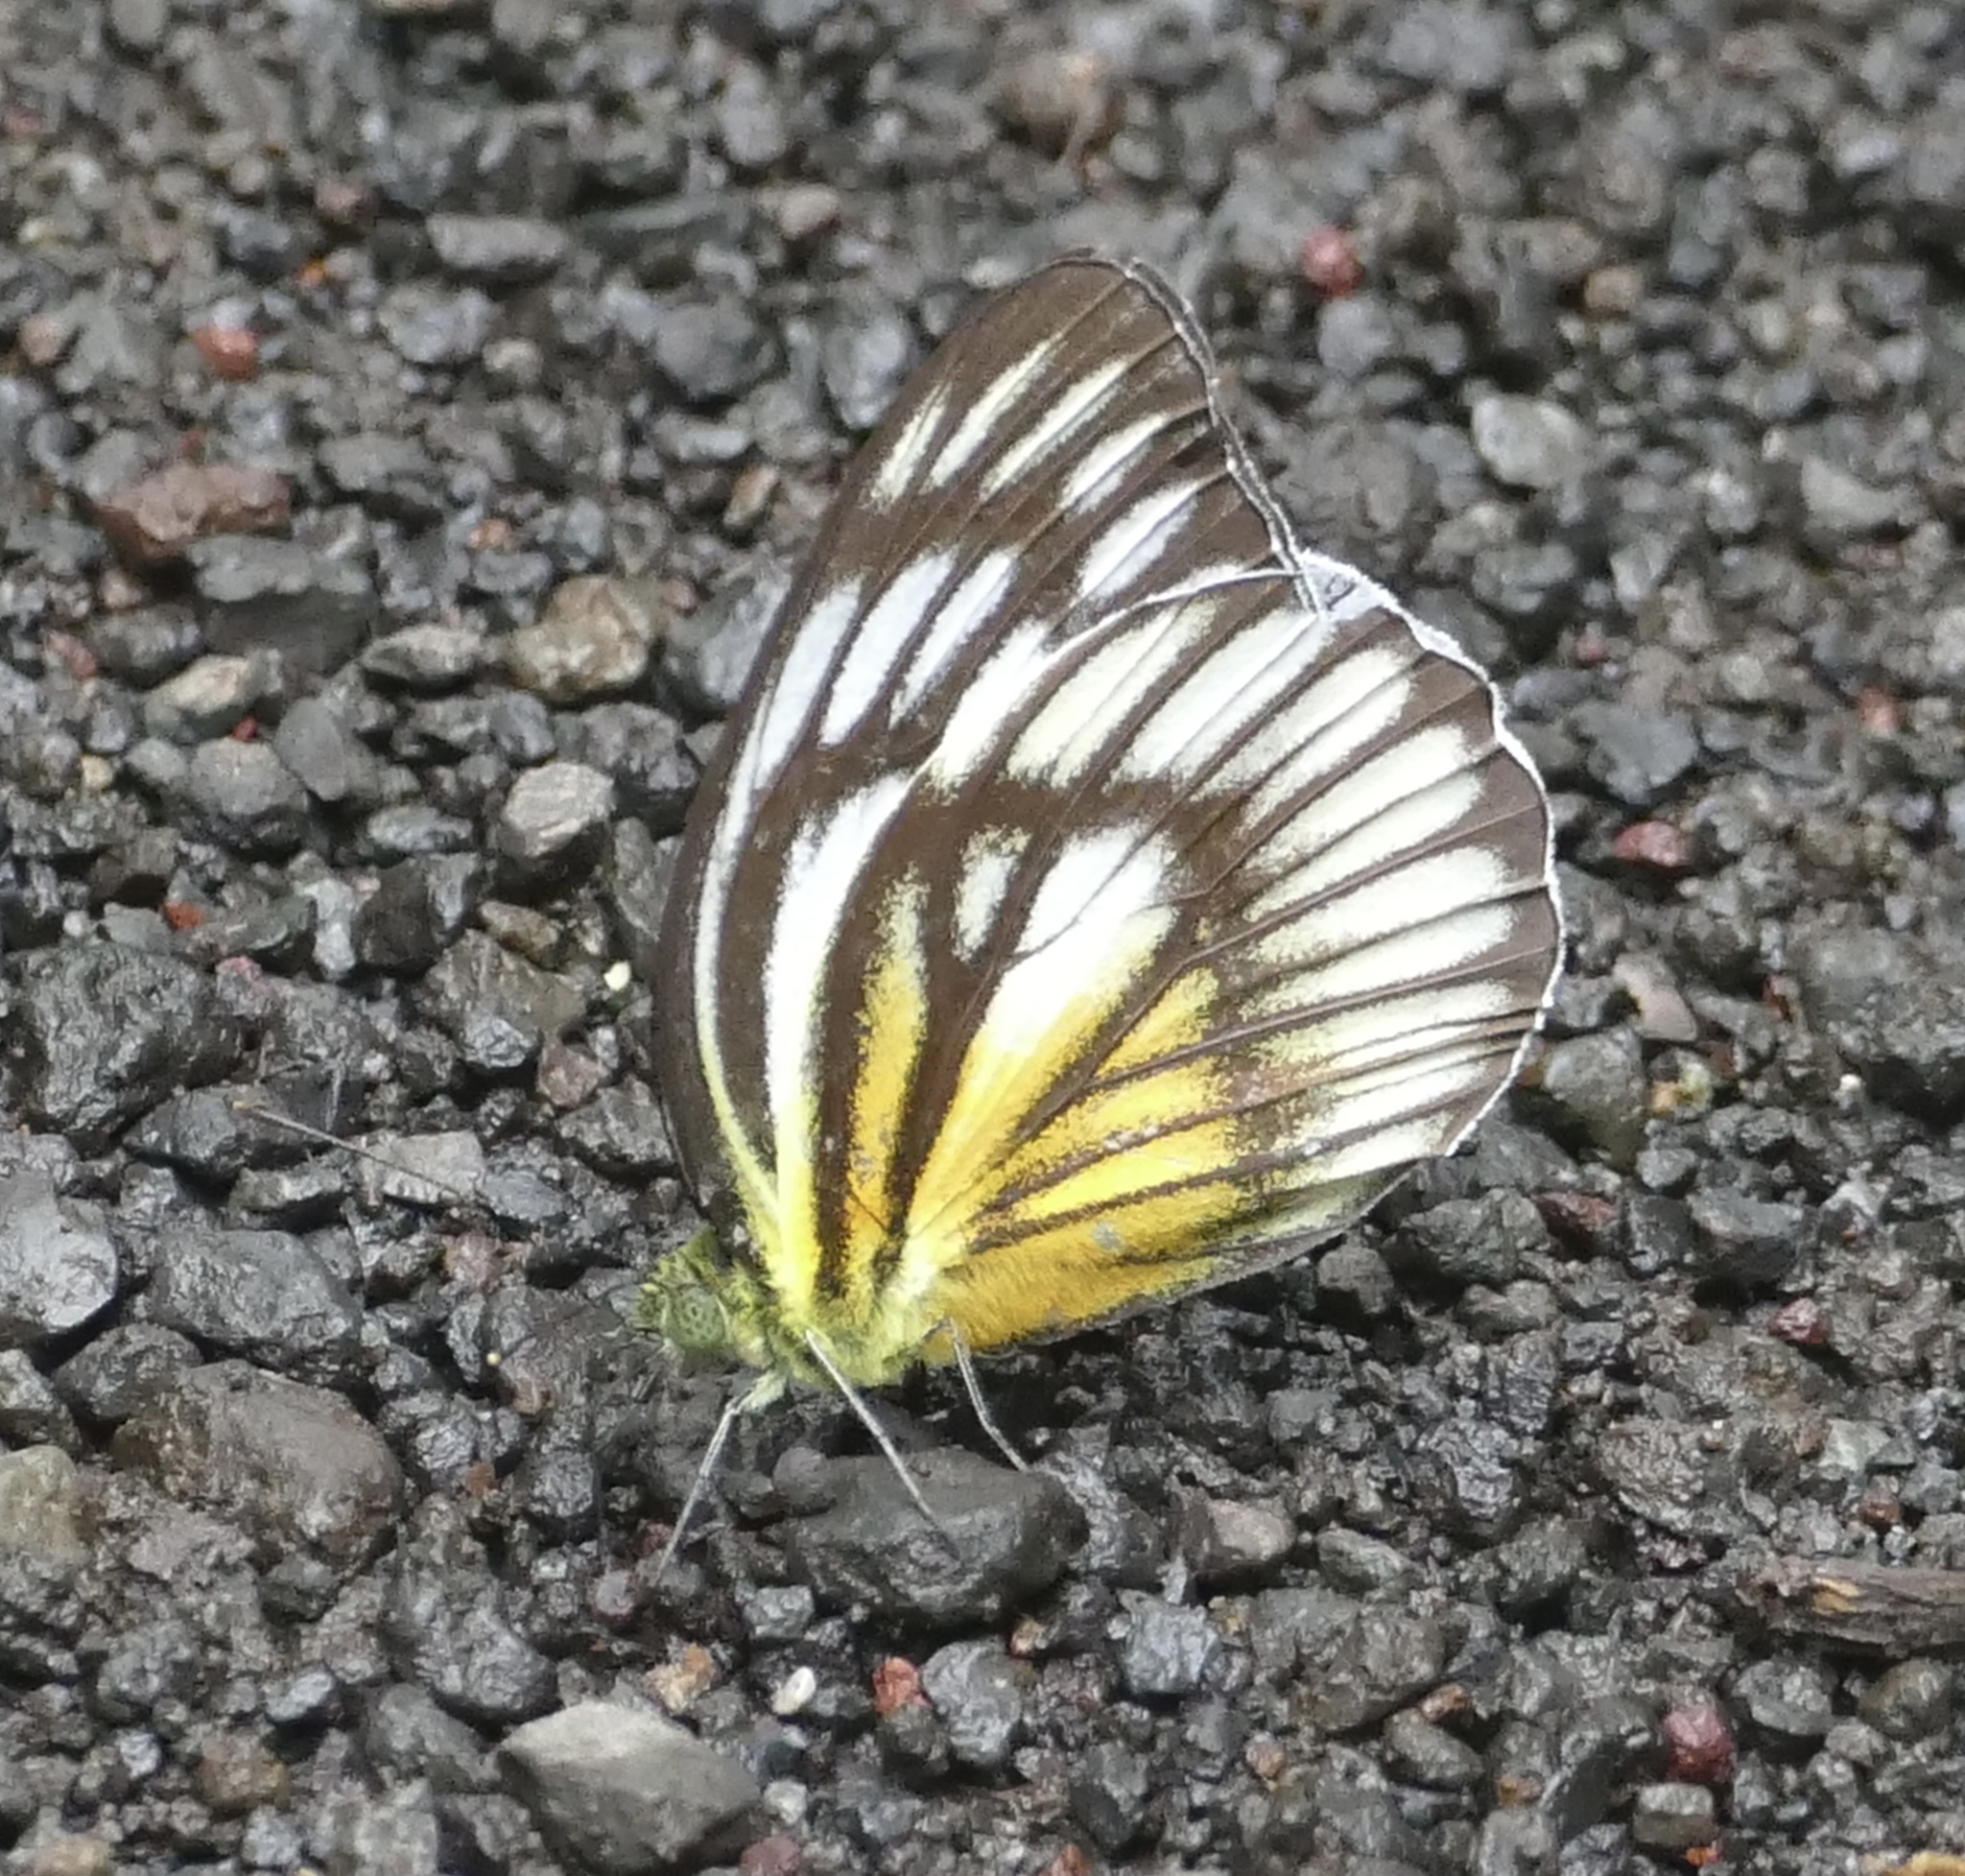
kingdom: Animalia
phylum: Arthropoda
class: Insecta
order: Lepidoptera
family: Pieridae
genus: Cepora
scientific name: Cepora celebensis
